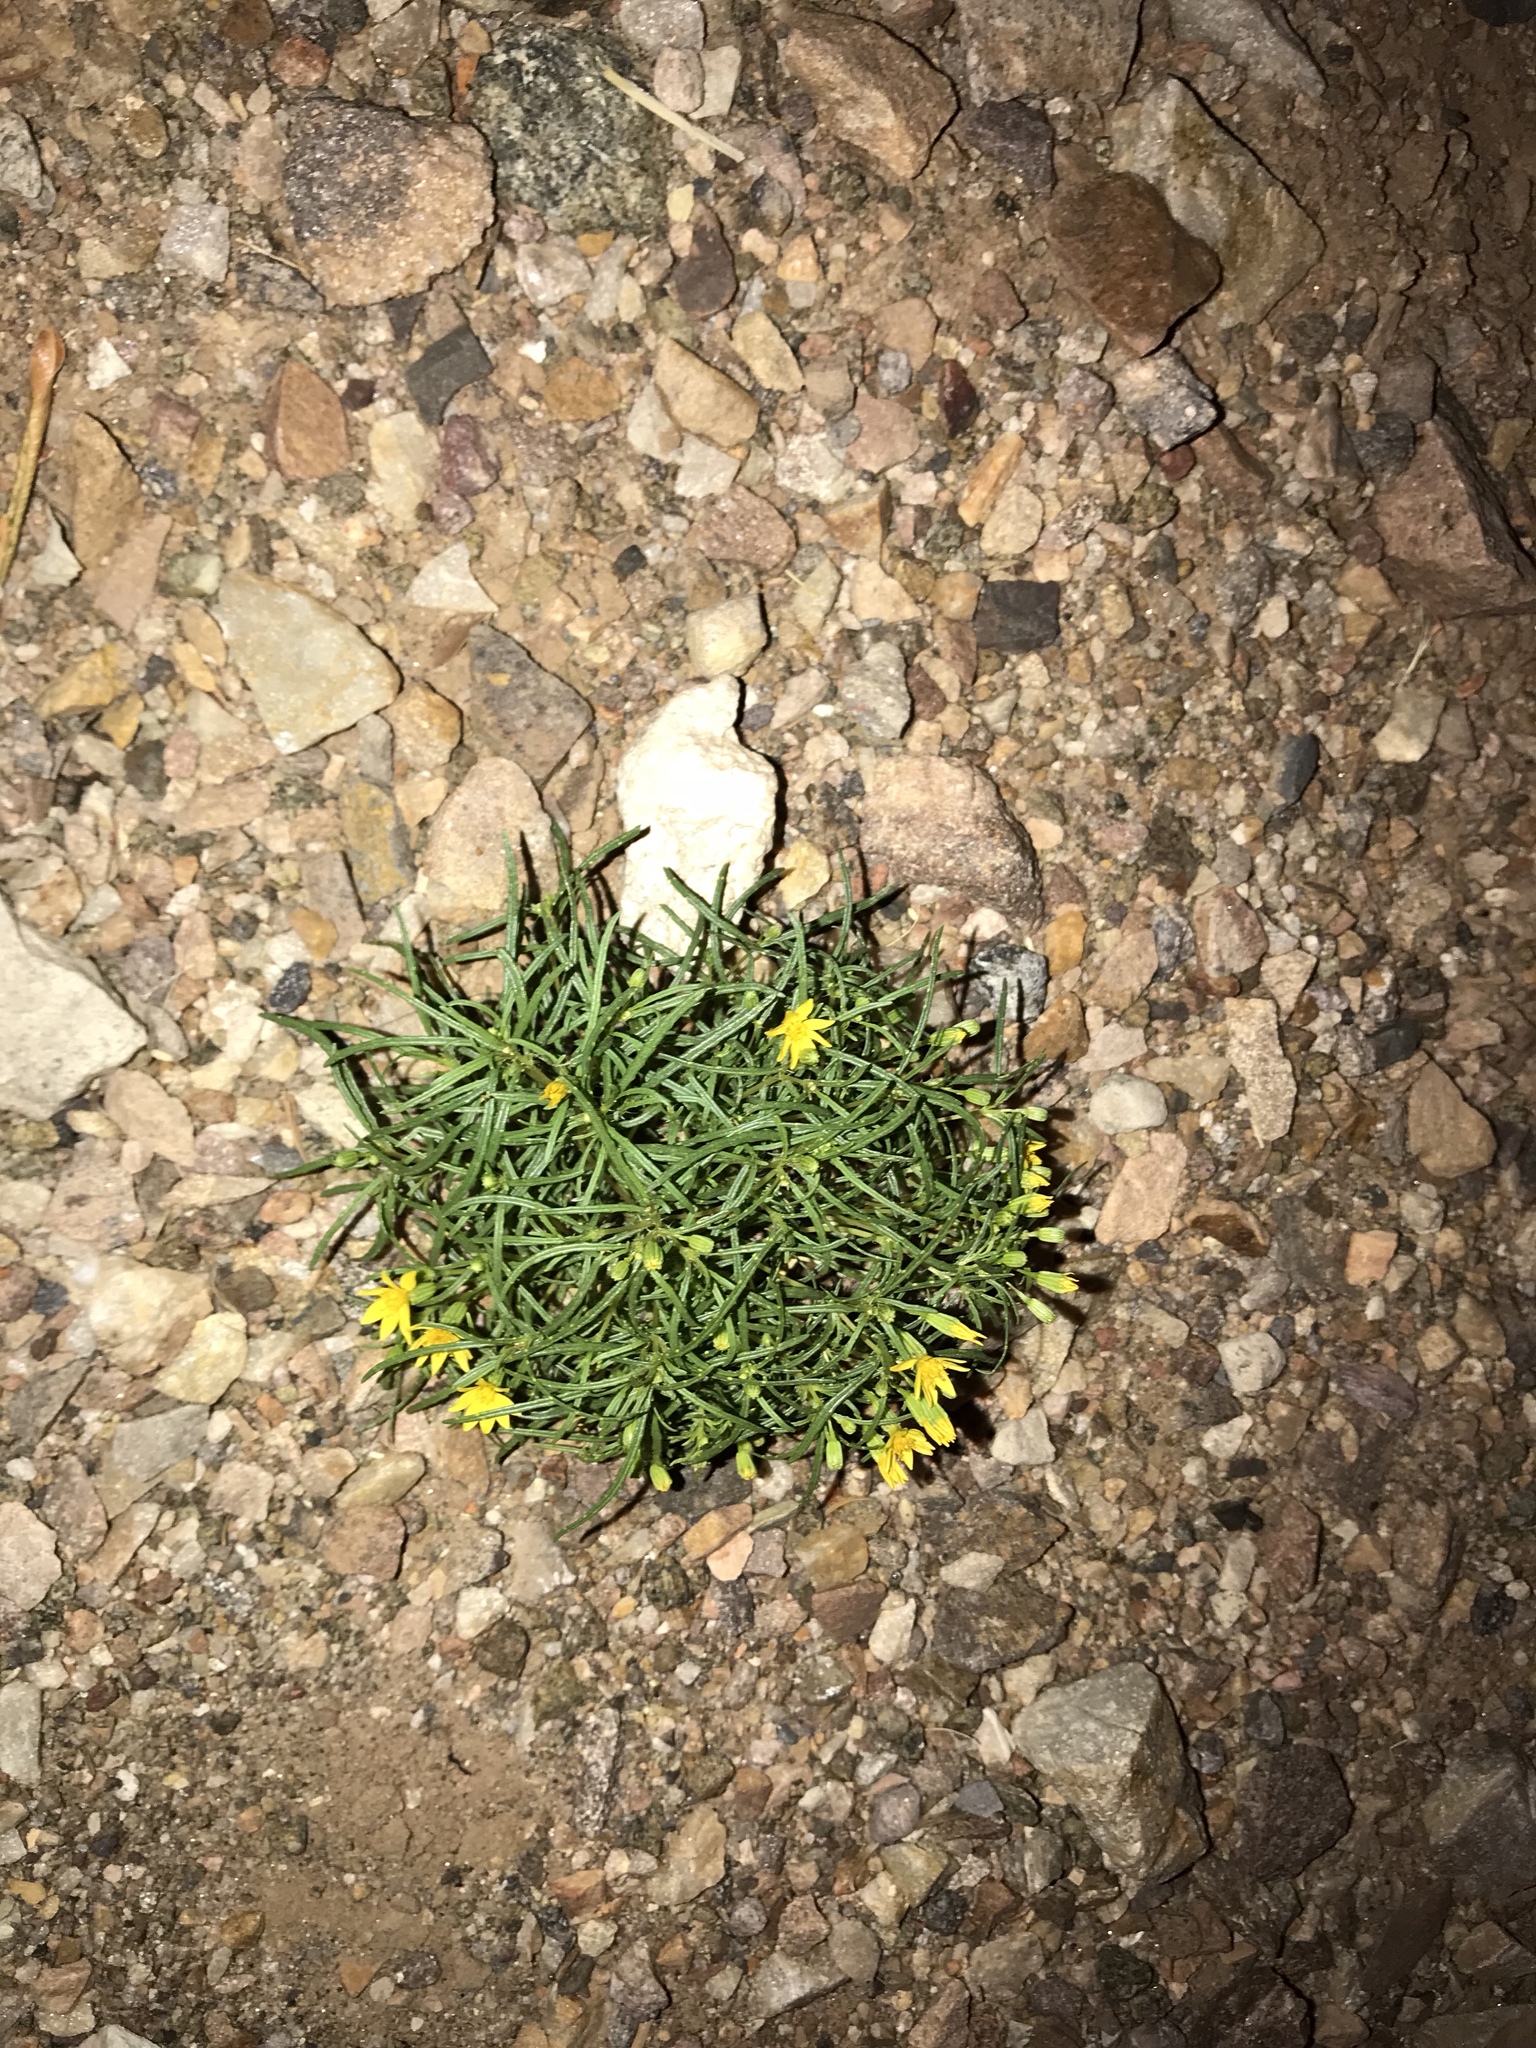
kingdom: Plantae
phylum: Tracheophyta
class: Magnoliopsida
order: Asterales
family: Asteraceae
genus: Pectis
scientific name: Pectis papposa
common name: Many-bristle chinchweed
